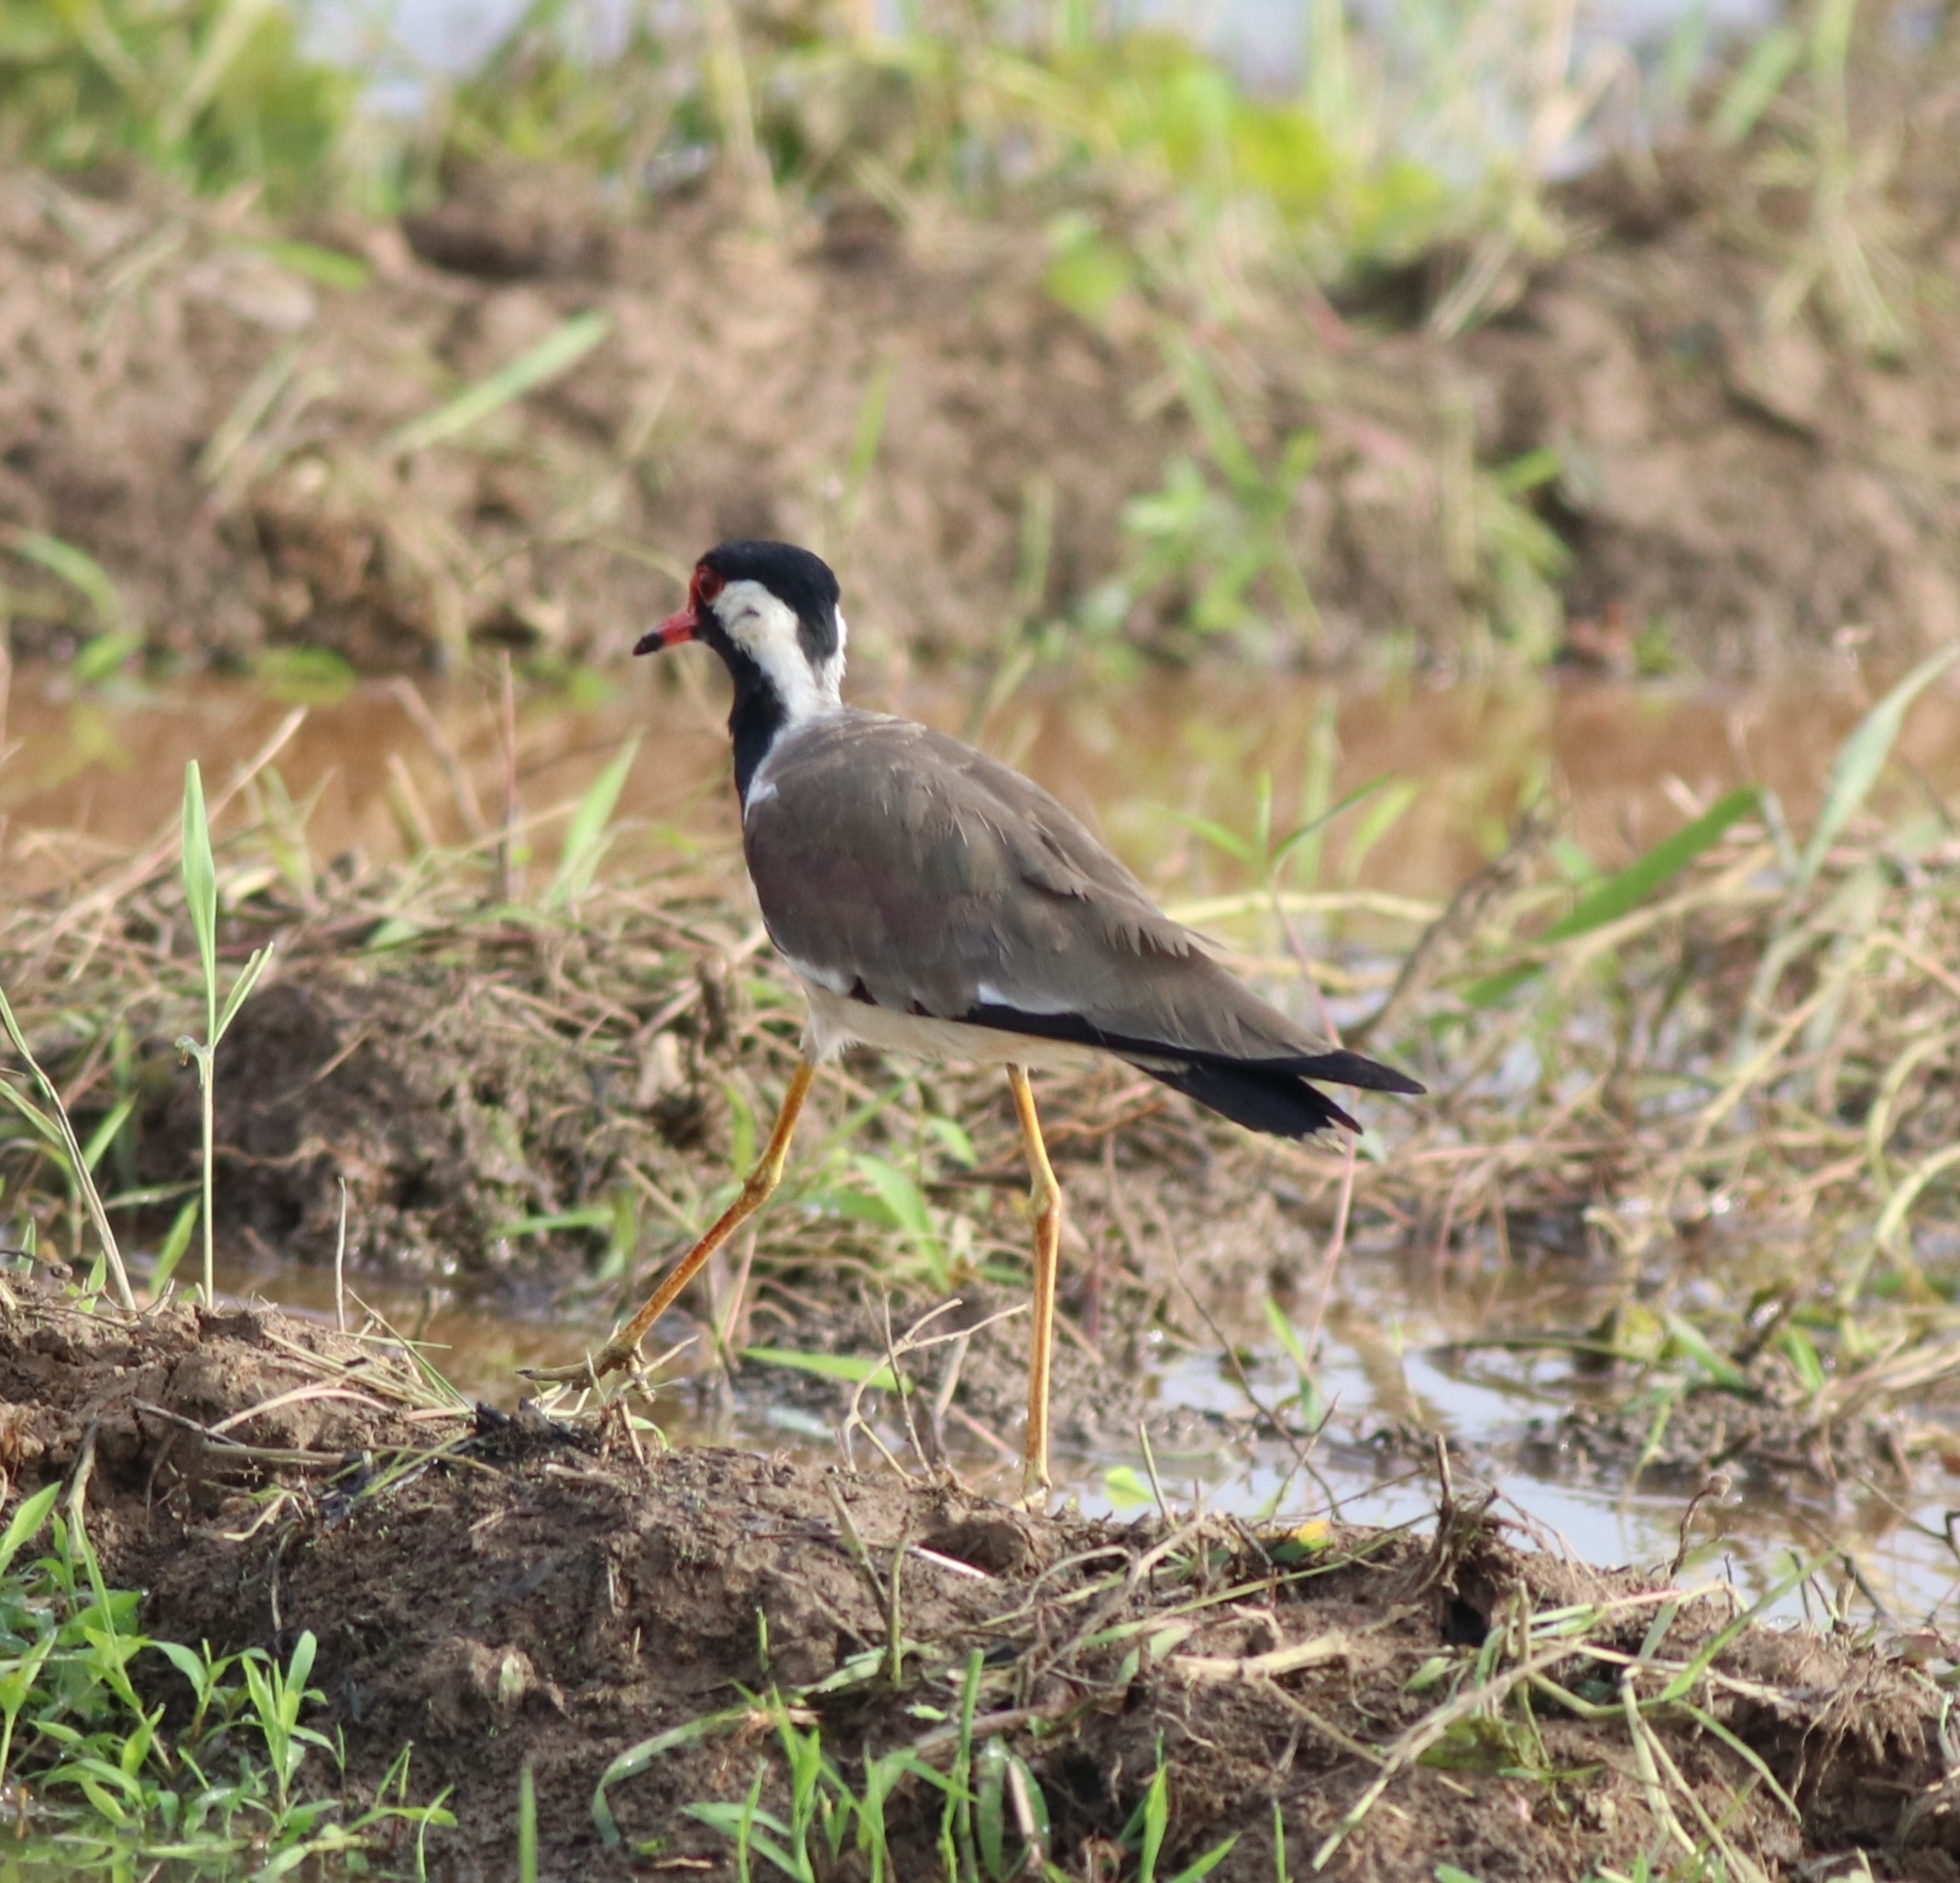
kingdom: Animalia
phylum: Chordata
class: Aves
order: Charadriiformes
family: Charadriidae
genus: Vanellus
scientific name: Vanellus indicus
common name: Red-wattled lapwing
